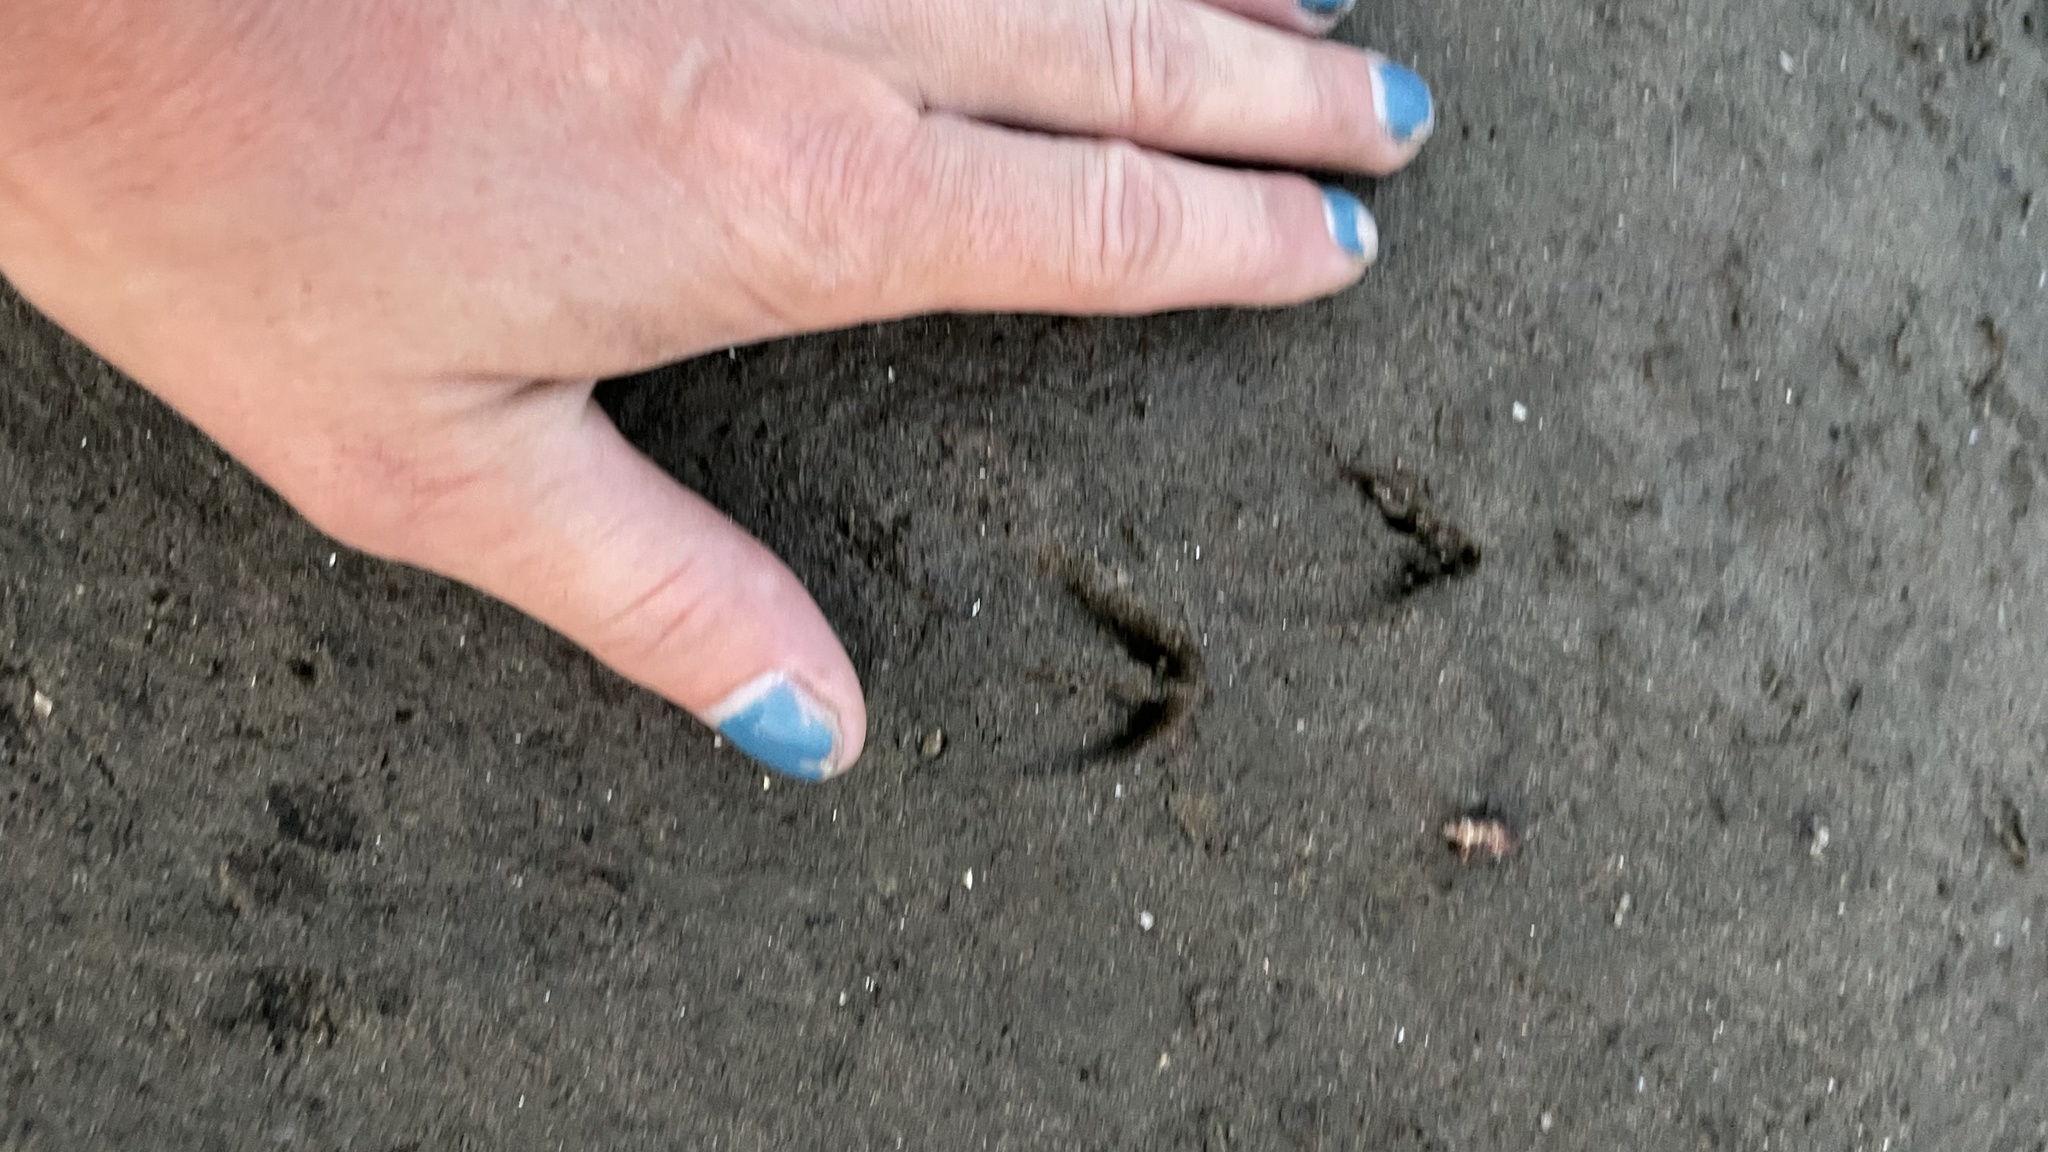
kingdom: Animalia
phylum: Chordata
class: Mammalia
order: Artiodactyla
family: Cervidae
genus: Odocoileus
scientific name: Odocoileus virginianus
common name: White-tailed deer
